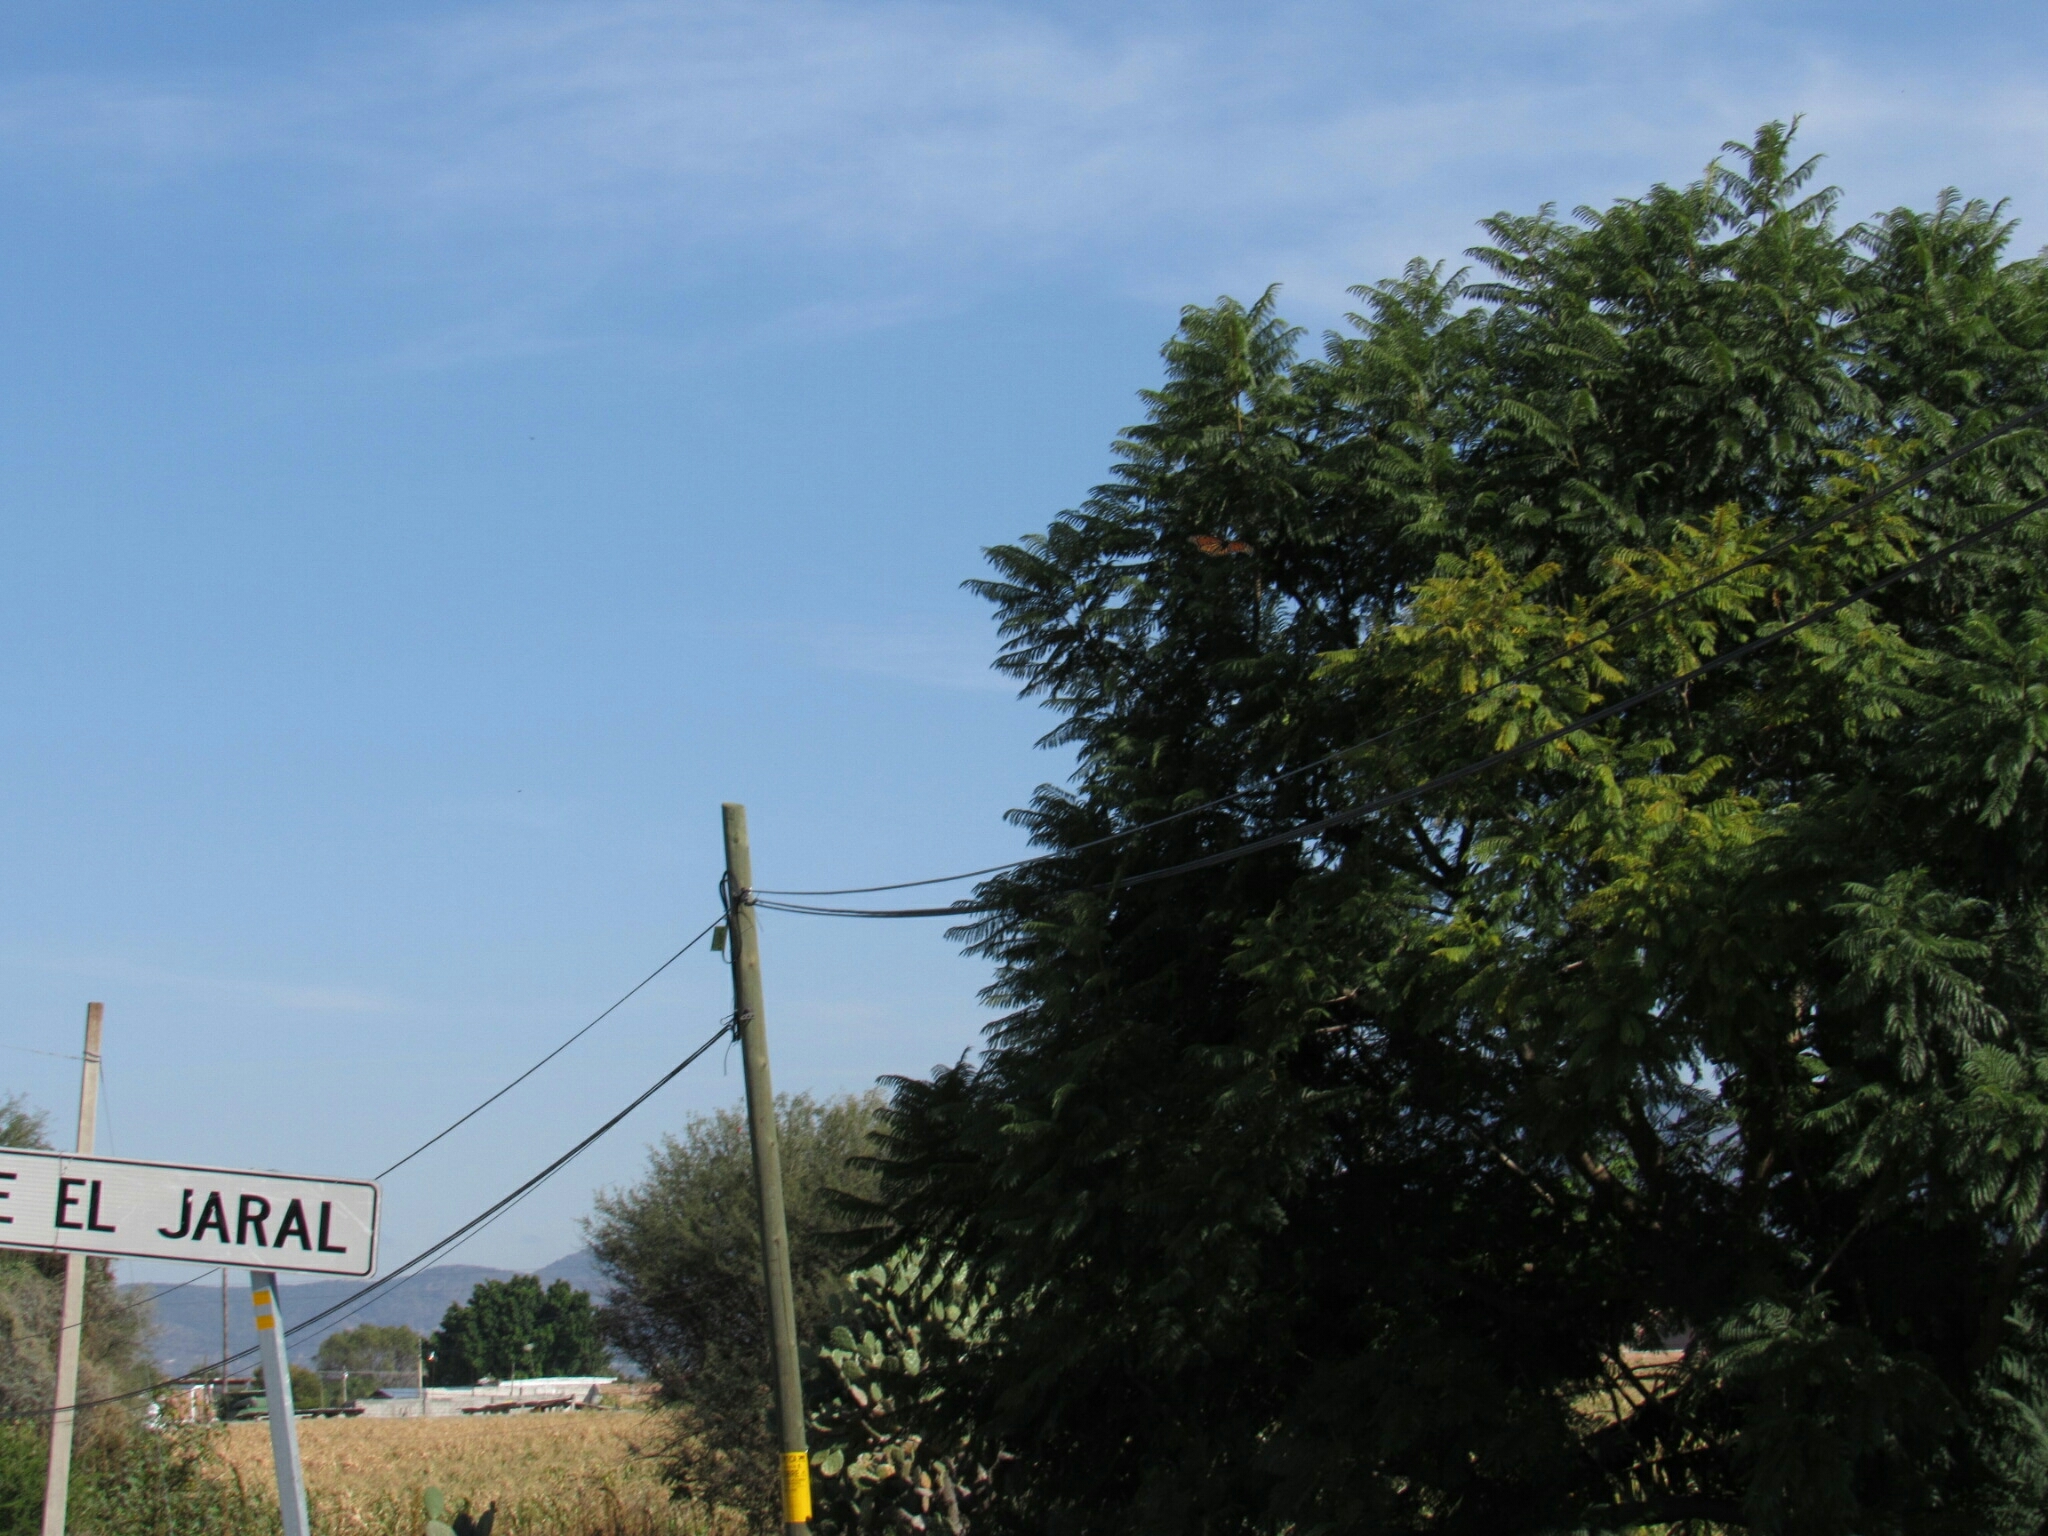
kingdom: Animalia
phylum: Arthropoda
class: Insecta
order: Lepidoptera
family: Nymphalidae
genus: Danaus
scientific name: Danaus plexippus
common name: Monarch
